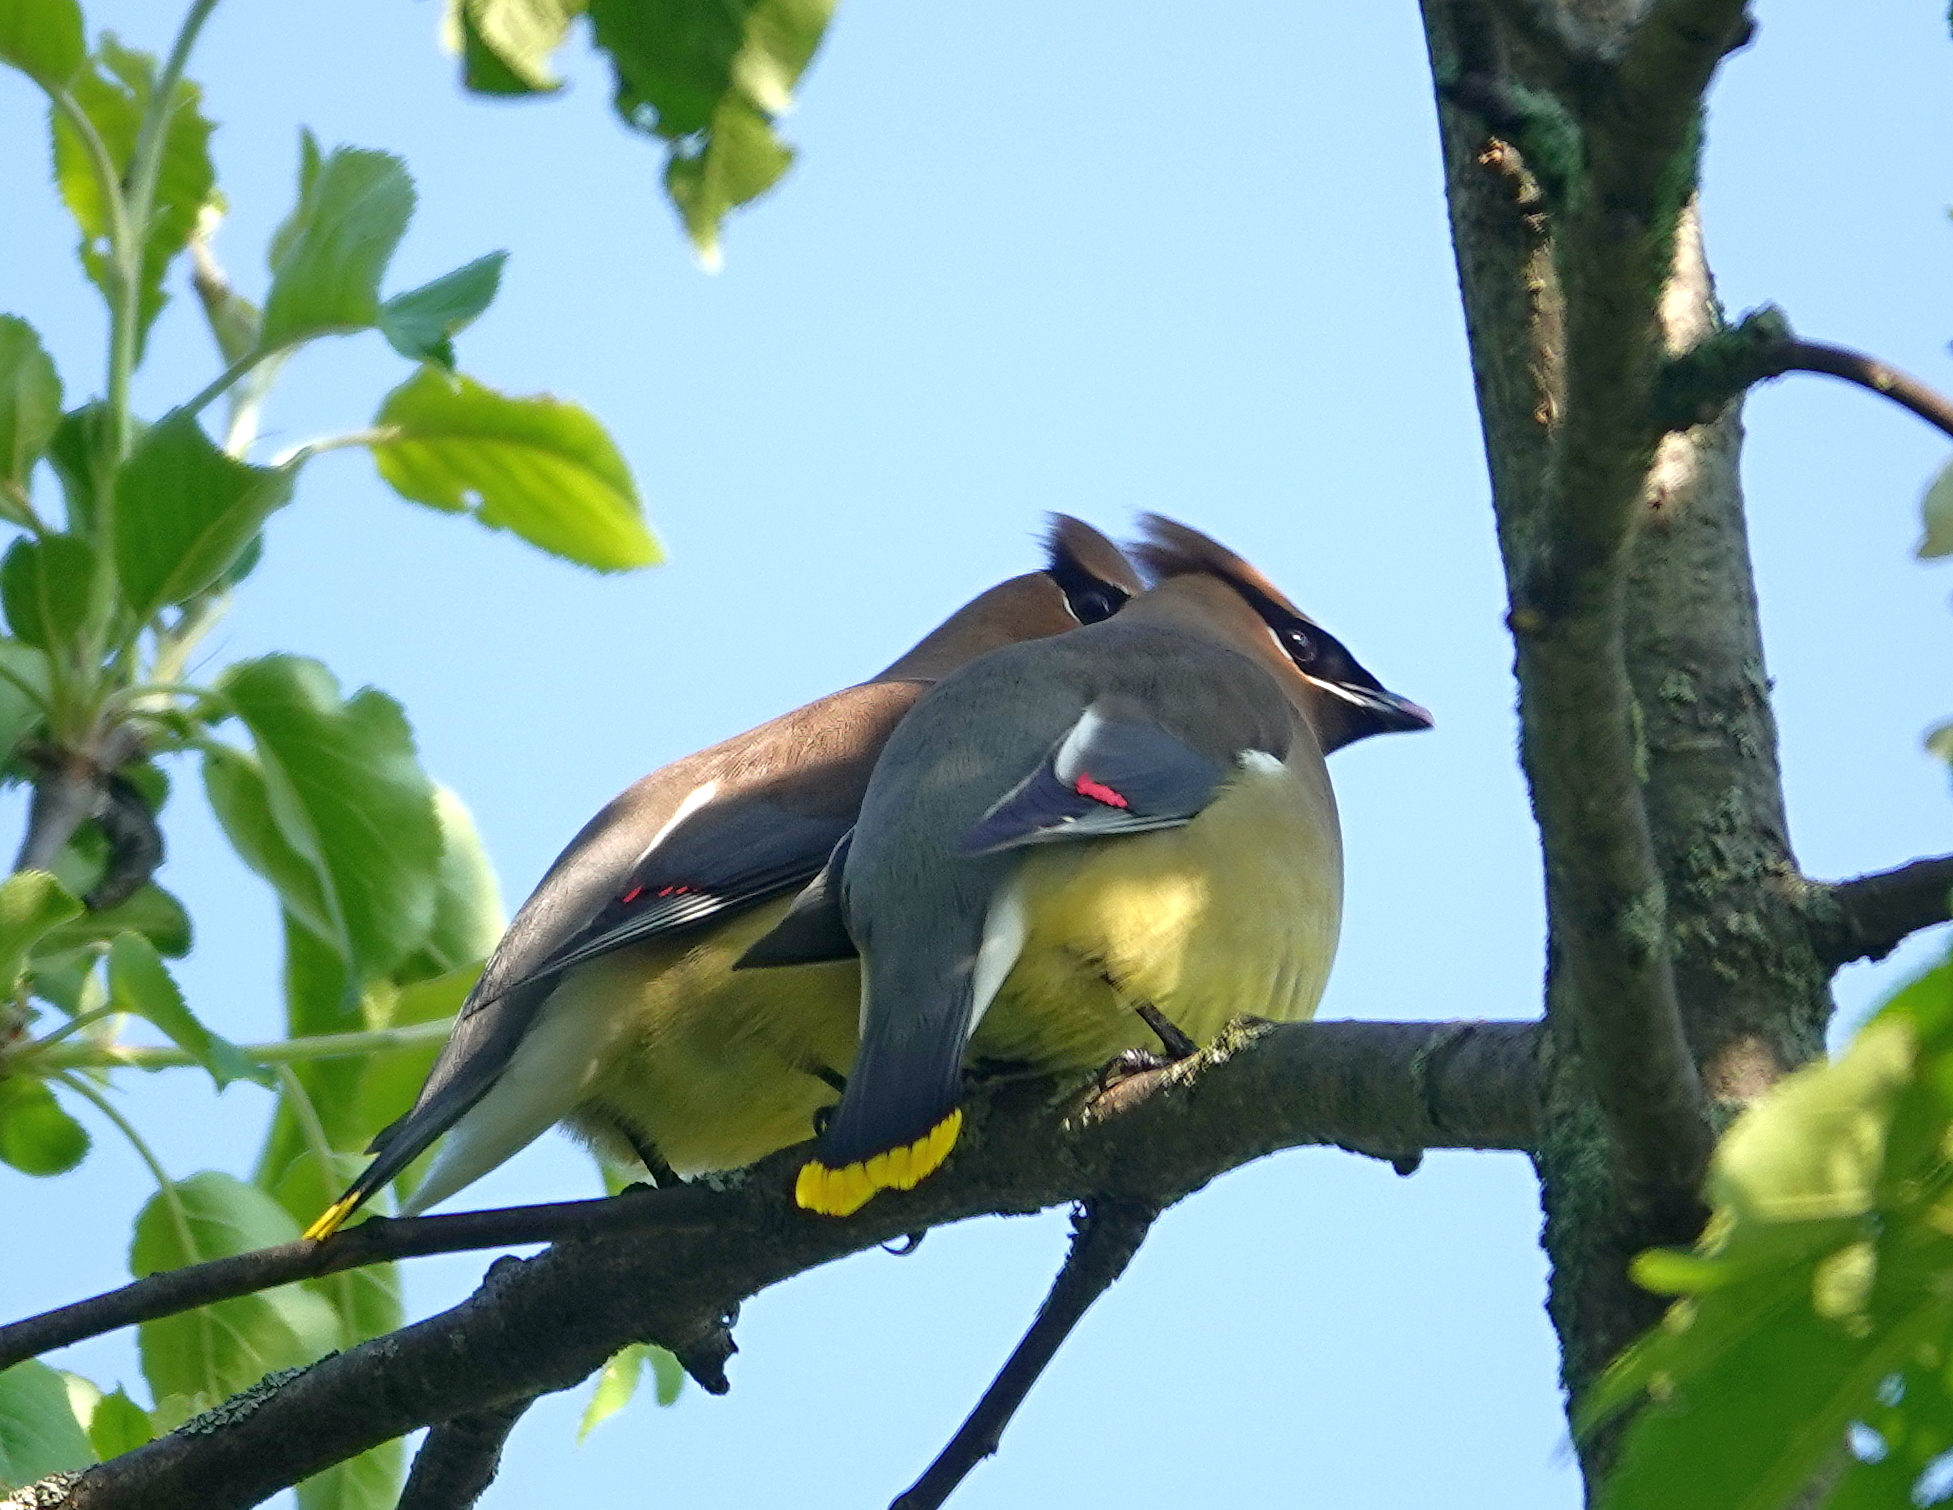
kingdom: Animalia
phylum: Chordata
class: Aves
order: Passeriformes
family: Bombycillidae
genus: Bombycilla
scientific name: Bombycilla cedrorum
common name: Cedar waxwing
